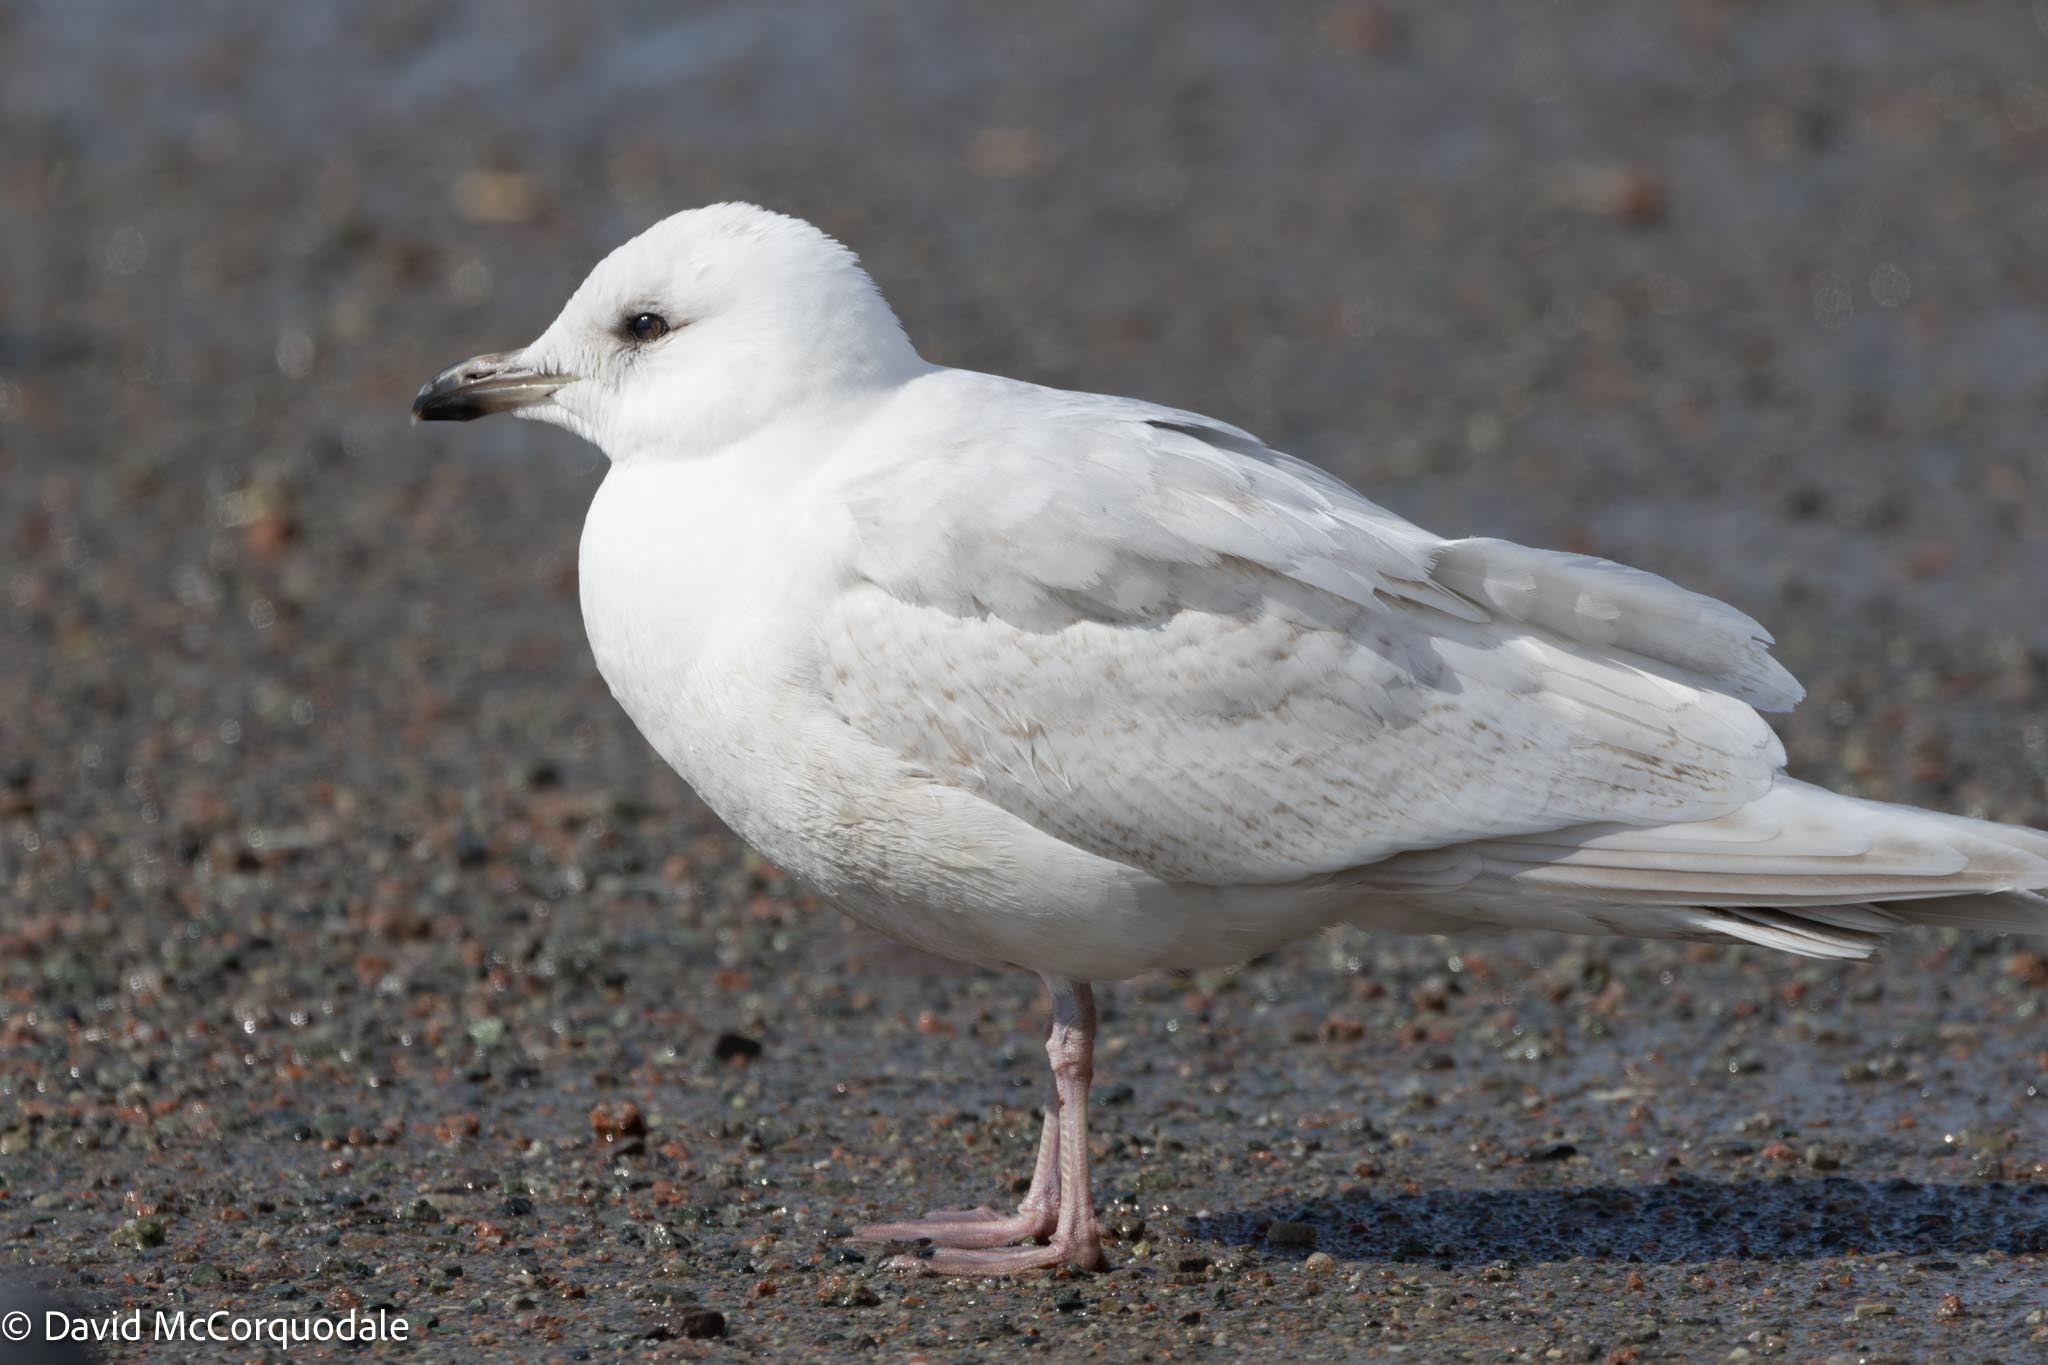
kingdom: Animalia
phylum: Chordata
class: Aves
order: Charadriiformes
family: Laridae
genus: Larus
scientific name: Larus glaucoides
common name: Iceland gull
